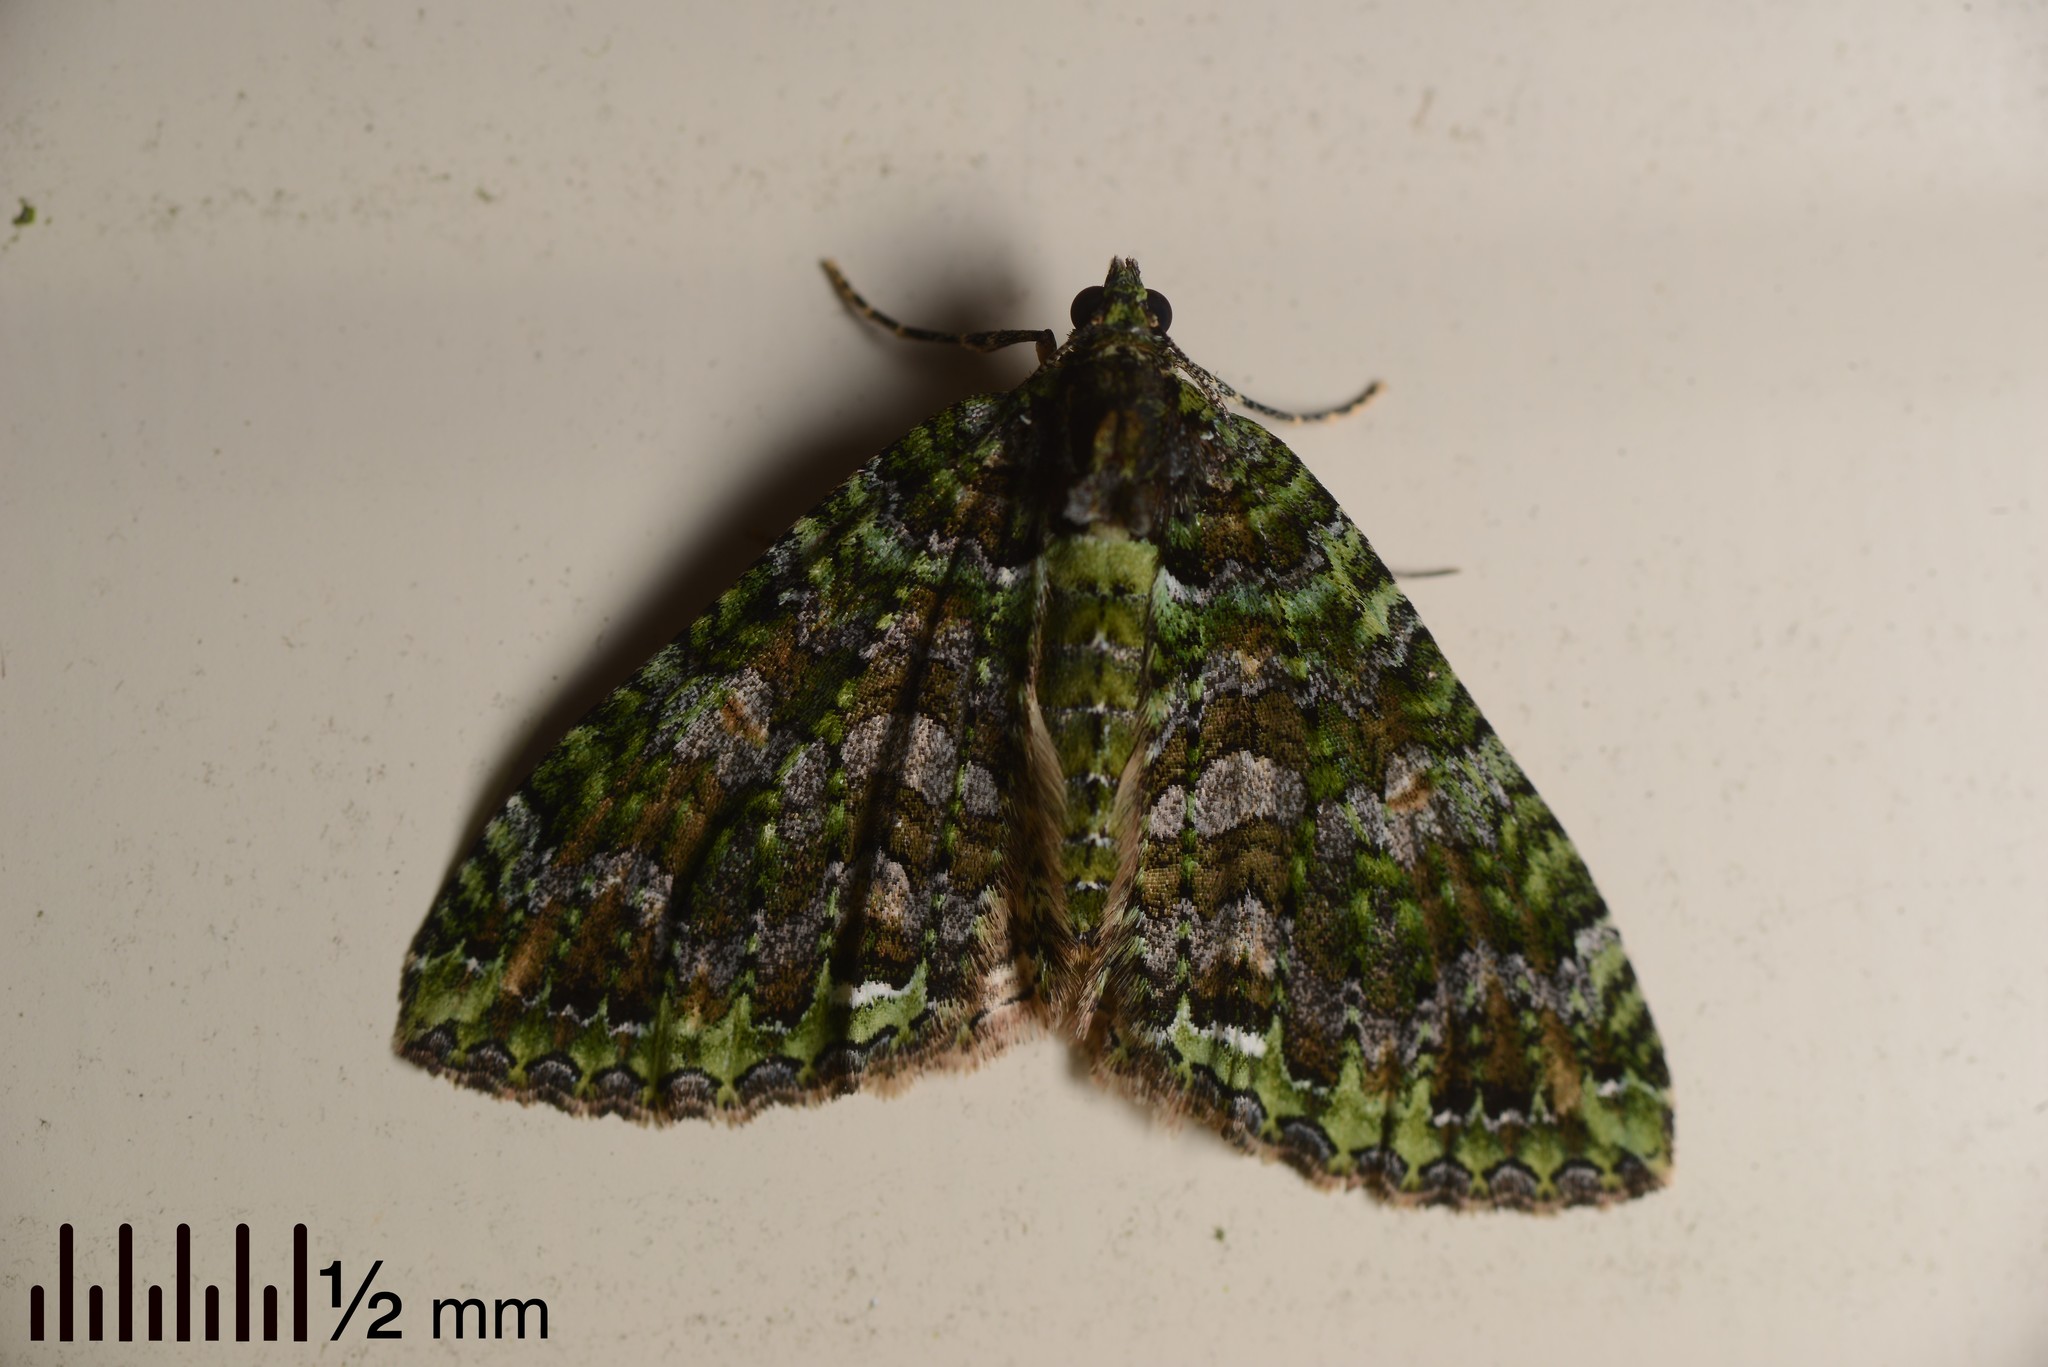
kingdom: Animalia
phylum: Arthropoda
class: Insecta
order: Lepidoptera
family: Geometridae
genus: Austrocidaria
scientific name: Austrocidaria similata
